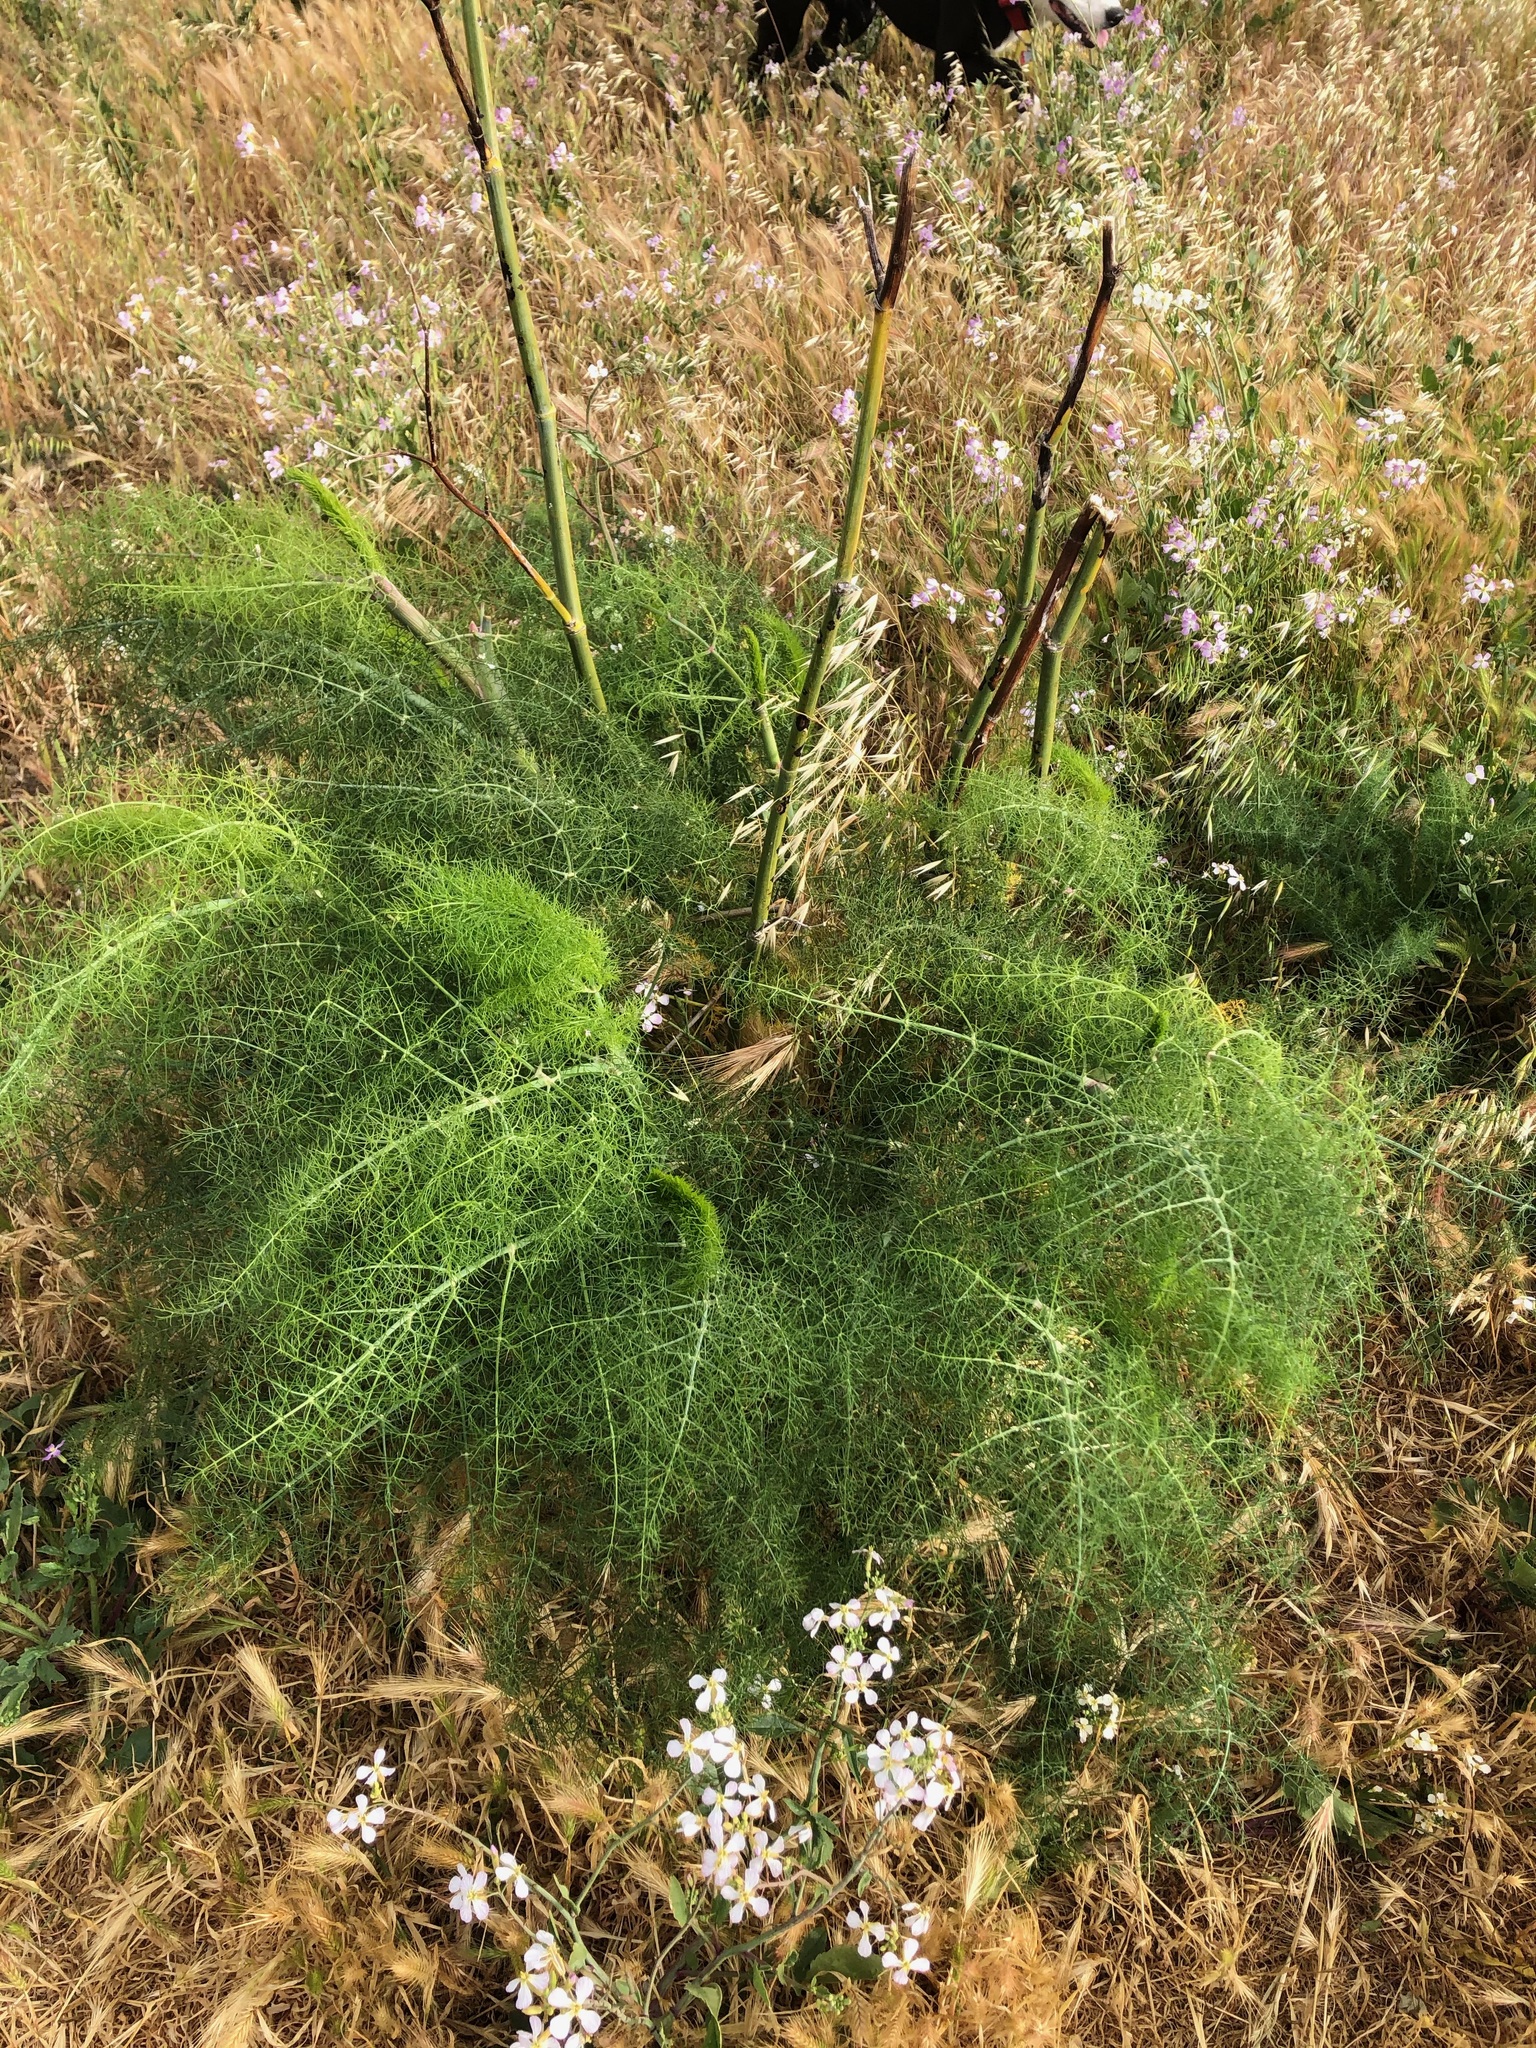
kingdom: Plantae
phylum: Tracheophyta
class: Magnoliopsida
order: Apiales
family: Apiaceae
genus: Foeniculum
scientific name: Foeniculum vulgare
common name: Fennel
